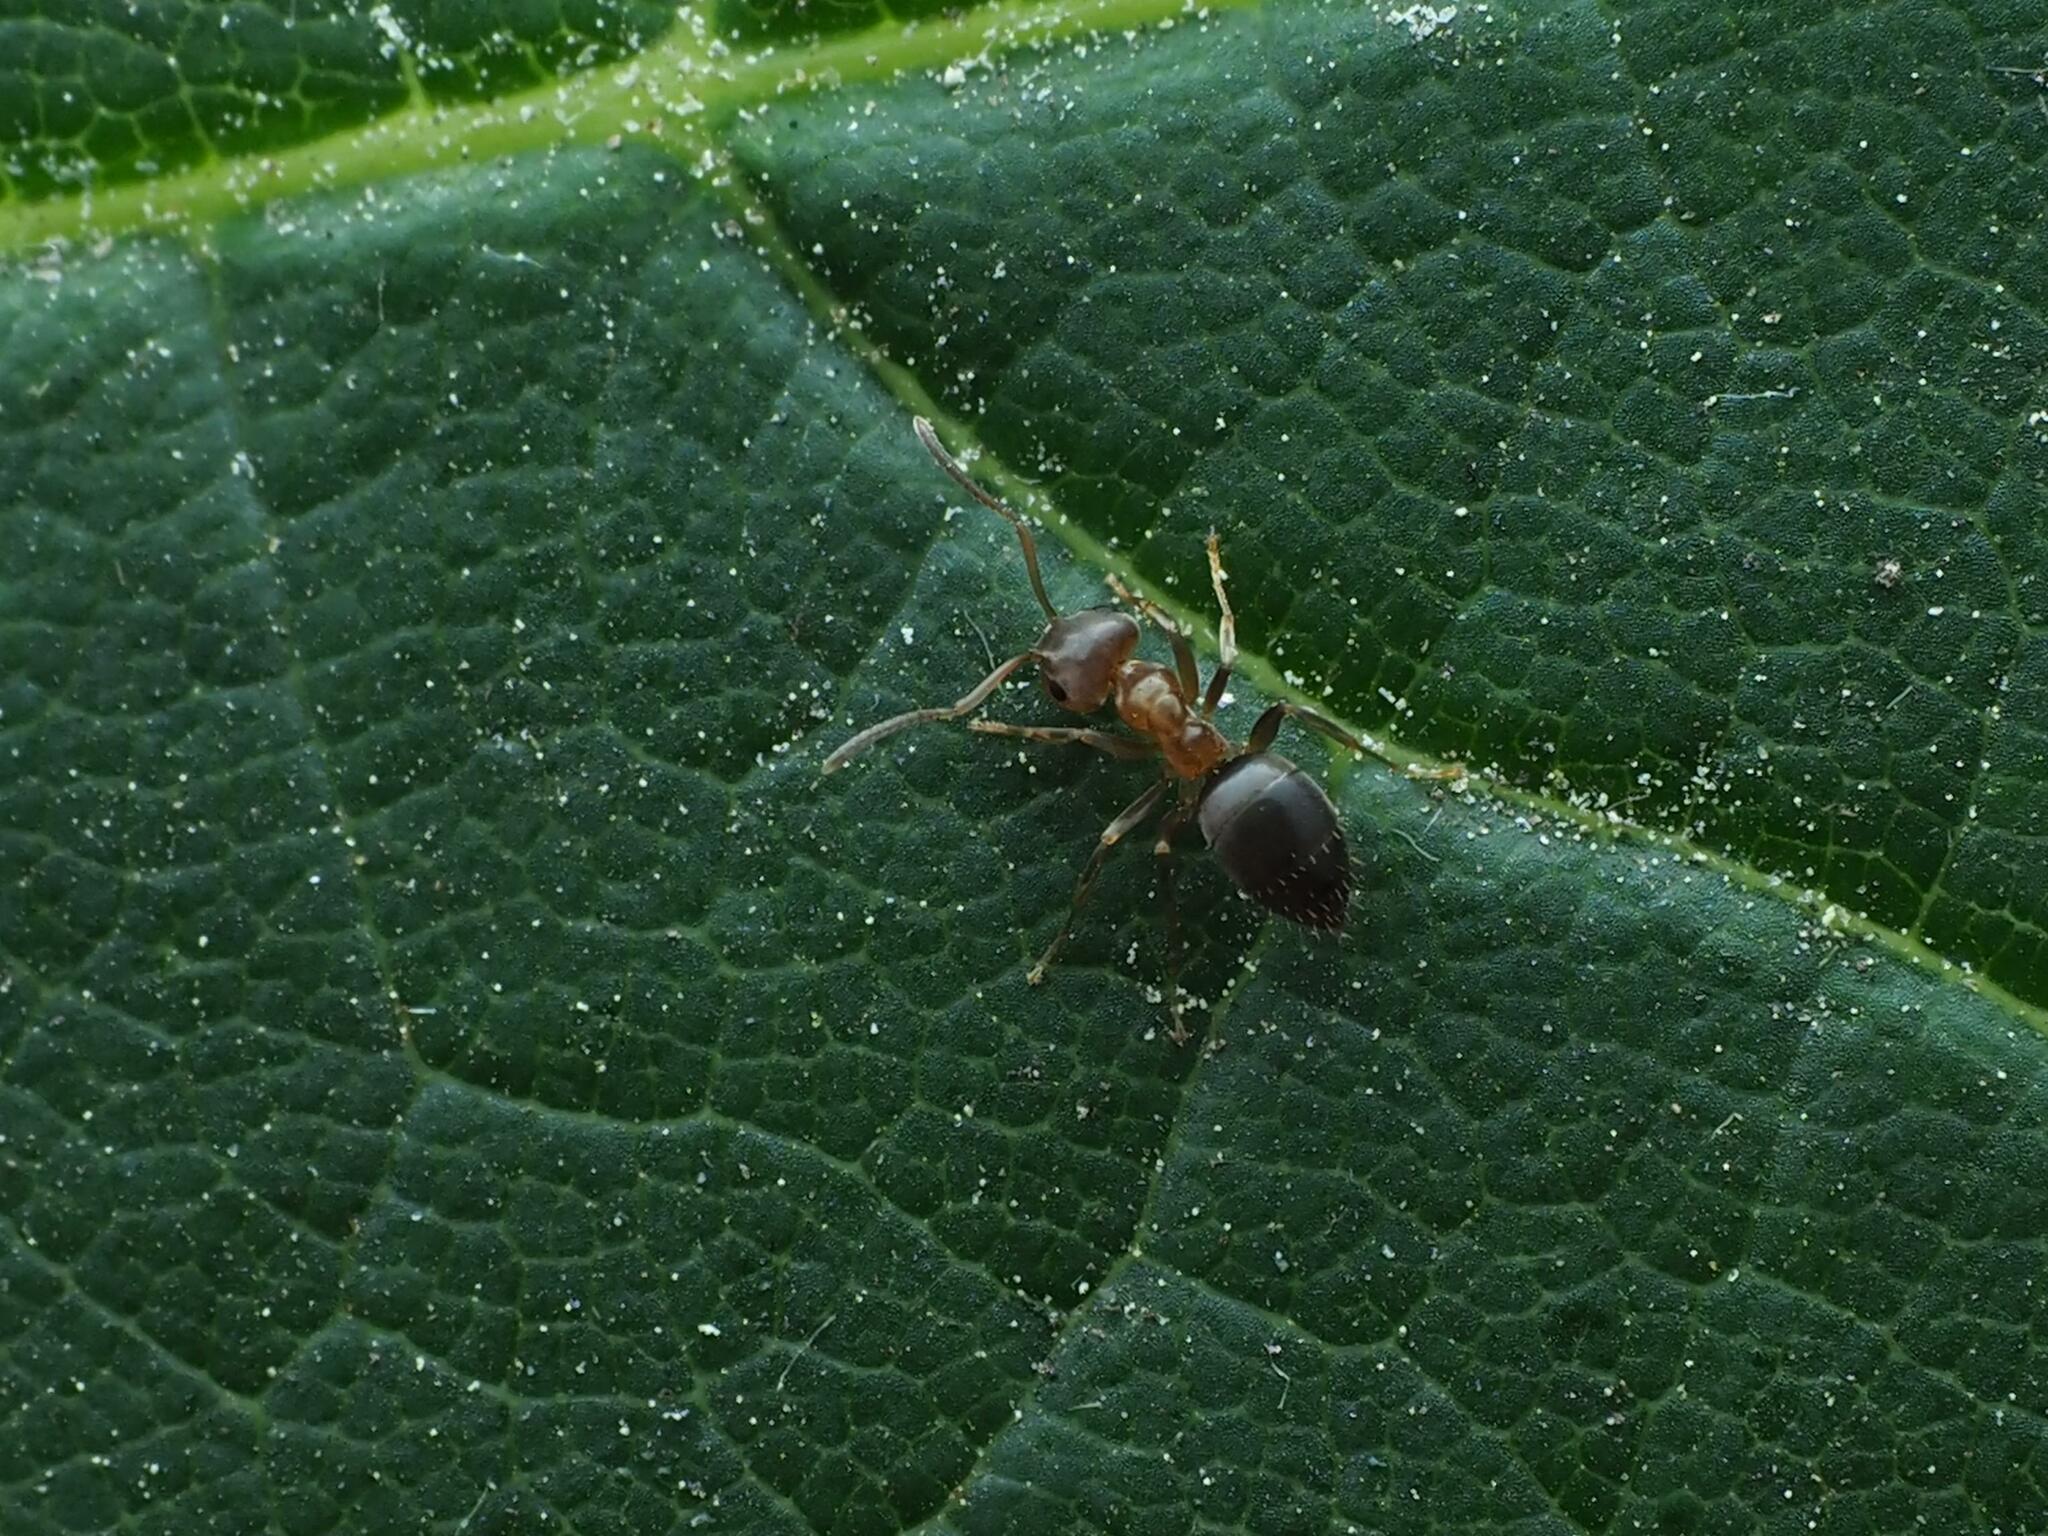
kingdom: Animalia
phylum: Arthropoda
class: Insecta
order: Hymenoptera
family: Formicidae
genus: Lasius
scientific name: Lasius brunneus
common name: Brown ant
